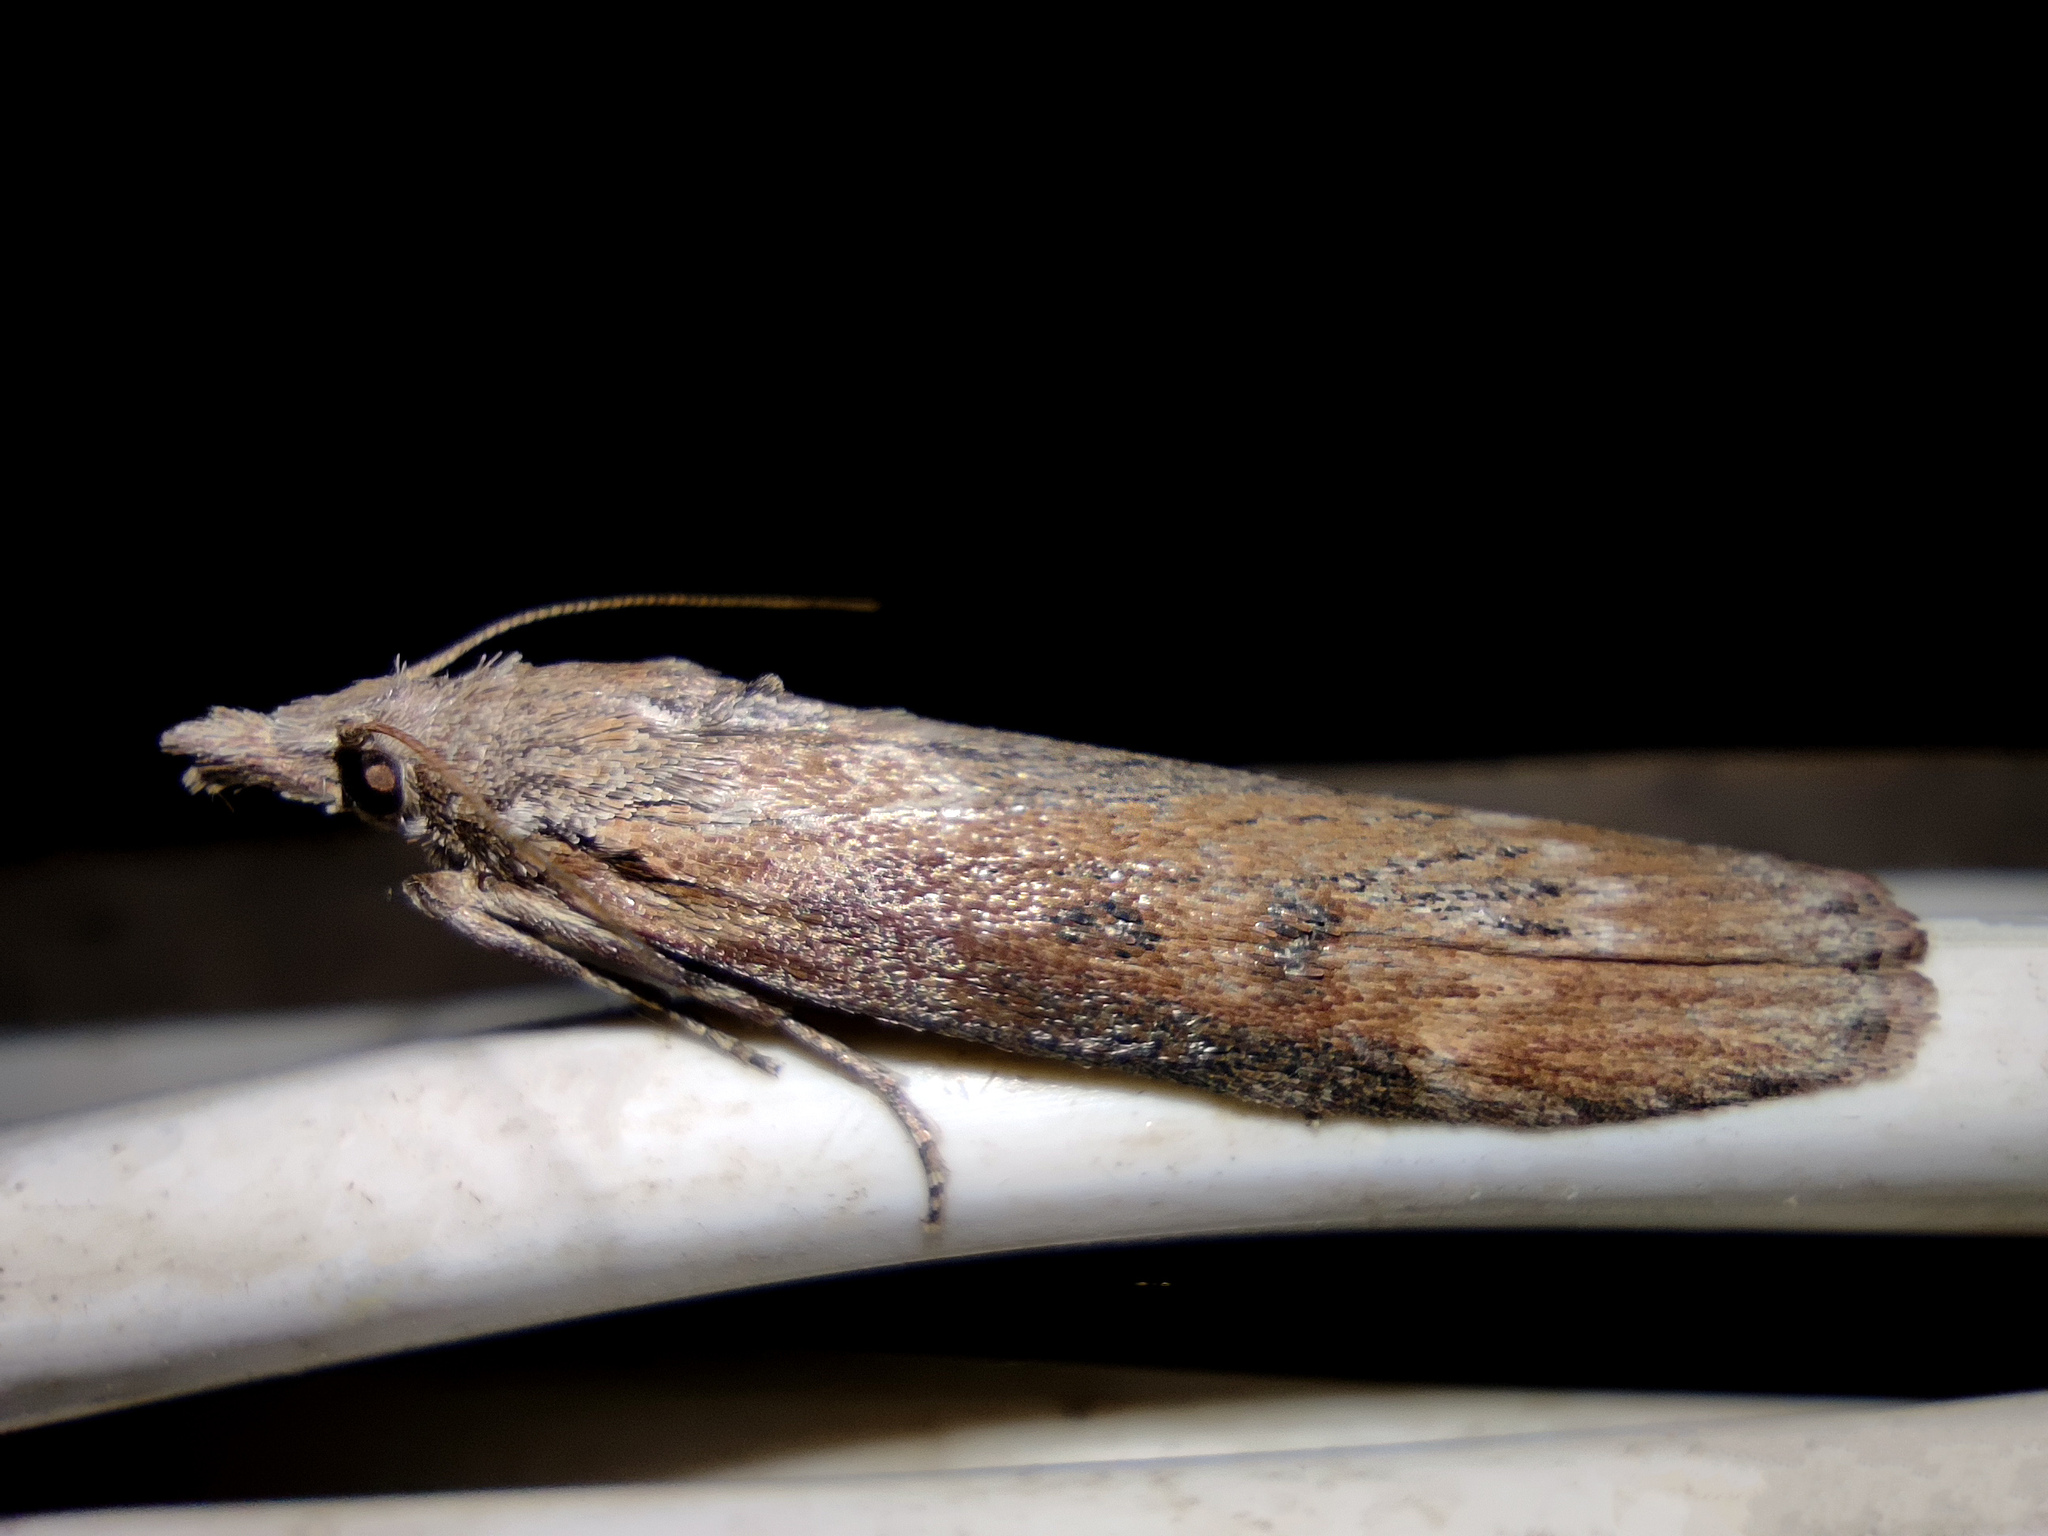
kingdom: Animalia
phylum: Arthropoda
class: Insecta
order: Lepidoptera
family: Pyralidae
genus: Aphomia
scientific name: Aphomia zelleri
